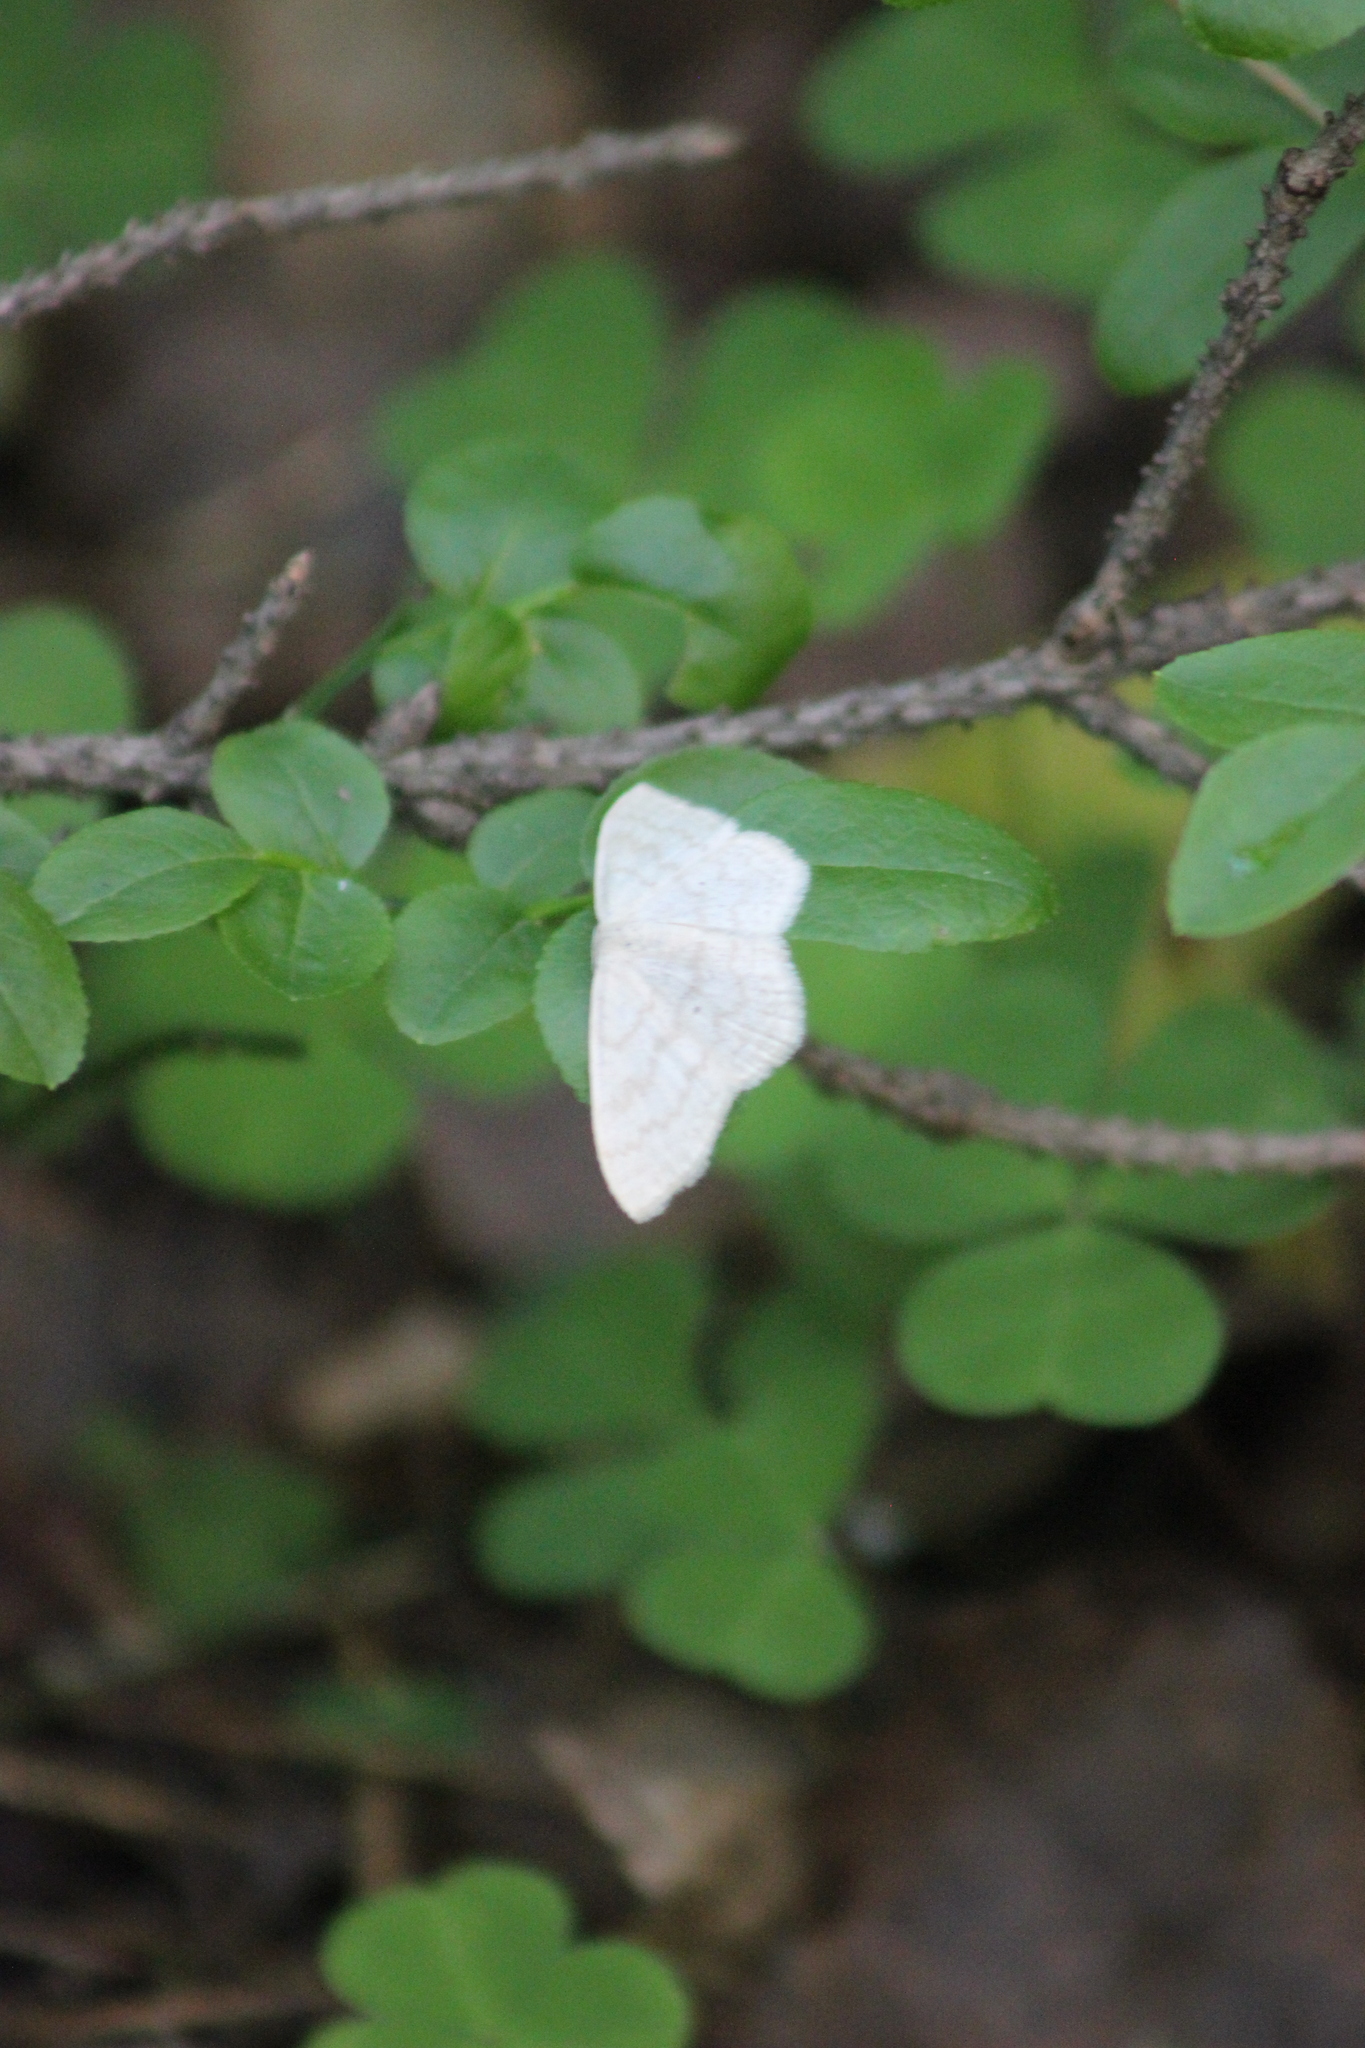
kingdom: Animalia
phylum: Arthropoda
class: Insecta
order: Lepidoptera
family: Geometridae
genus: Scopula
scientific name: Scopula floslactata
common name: Cream wave
